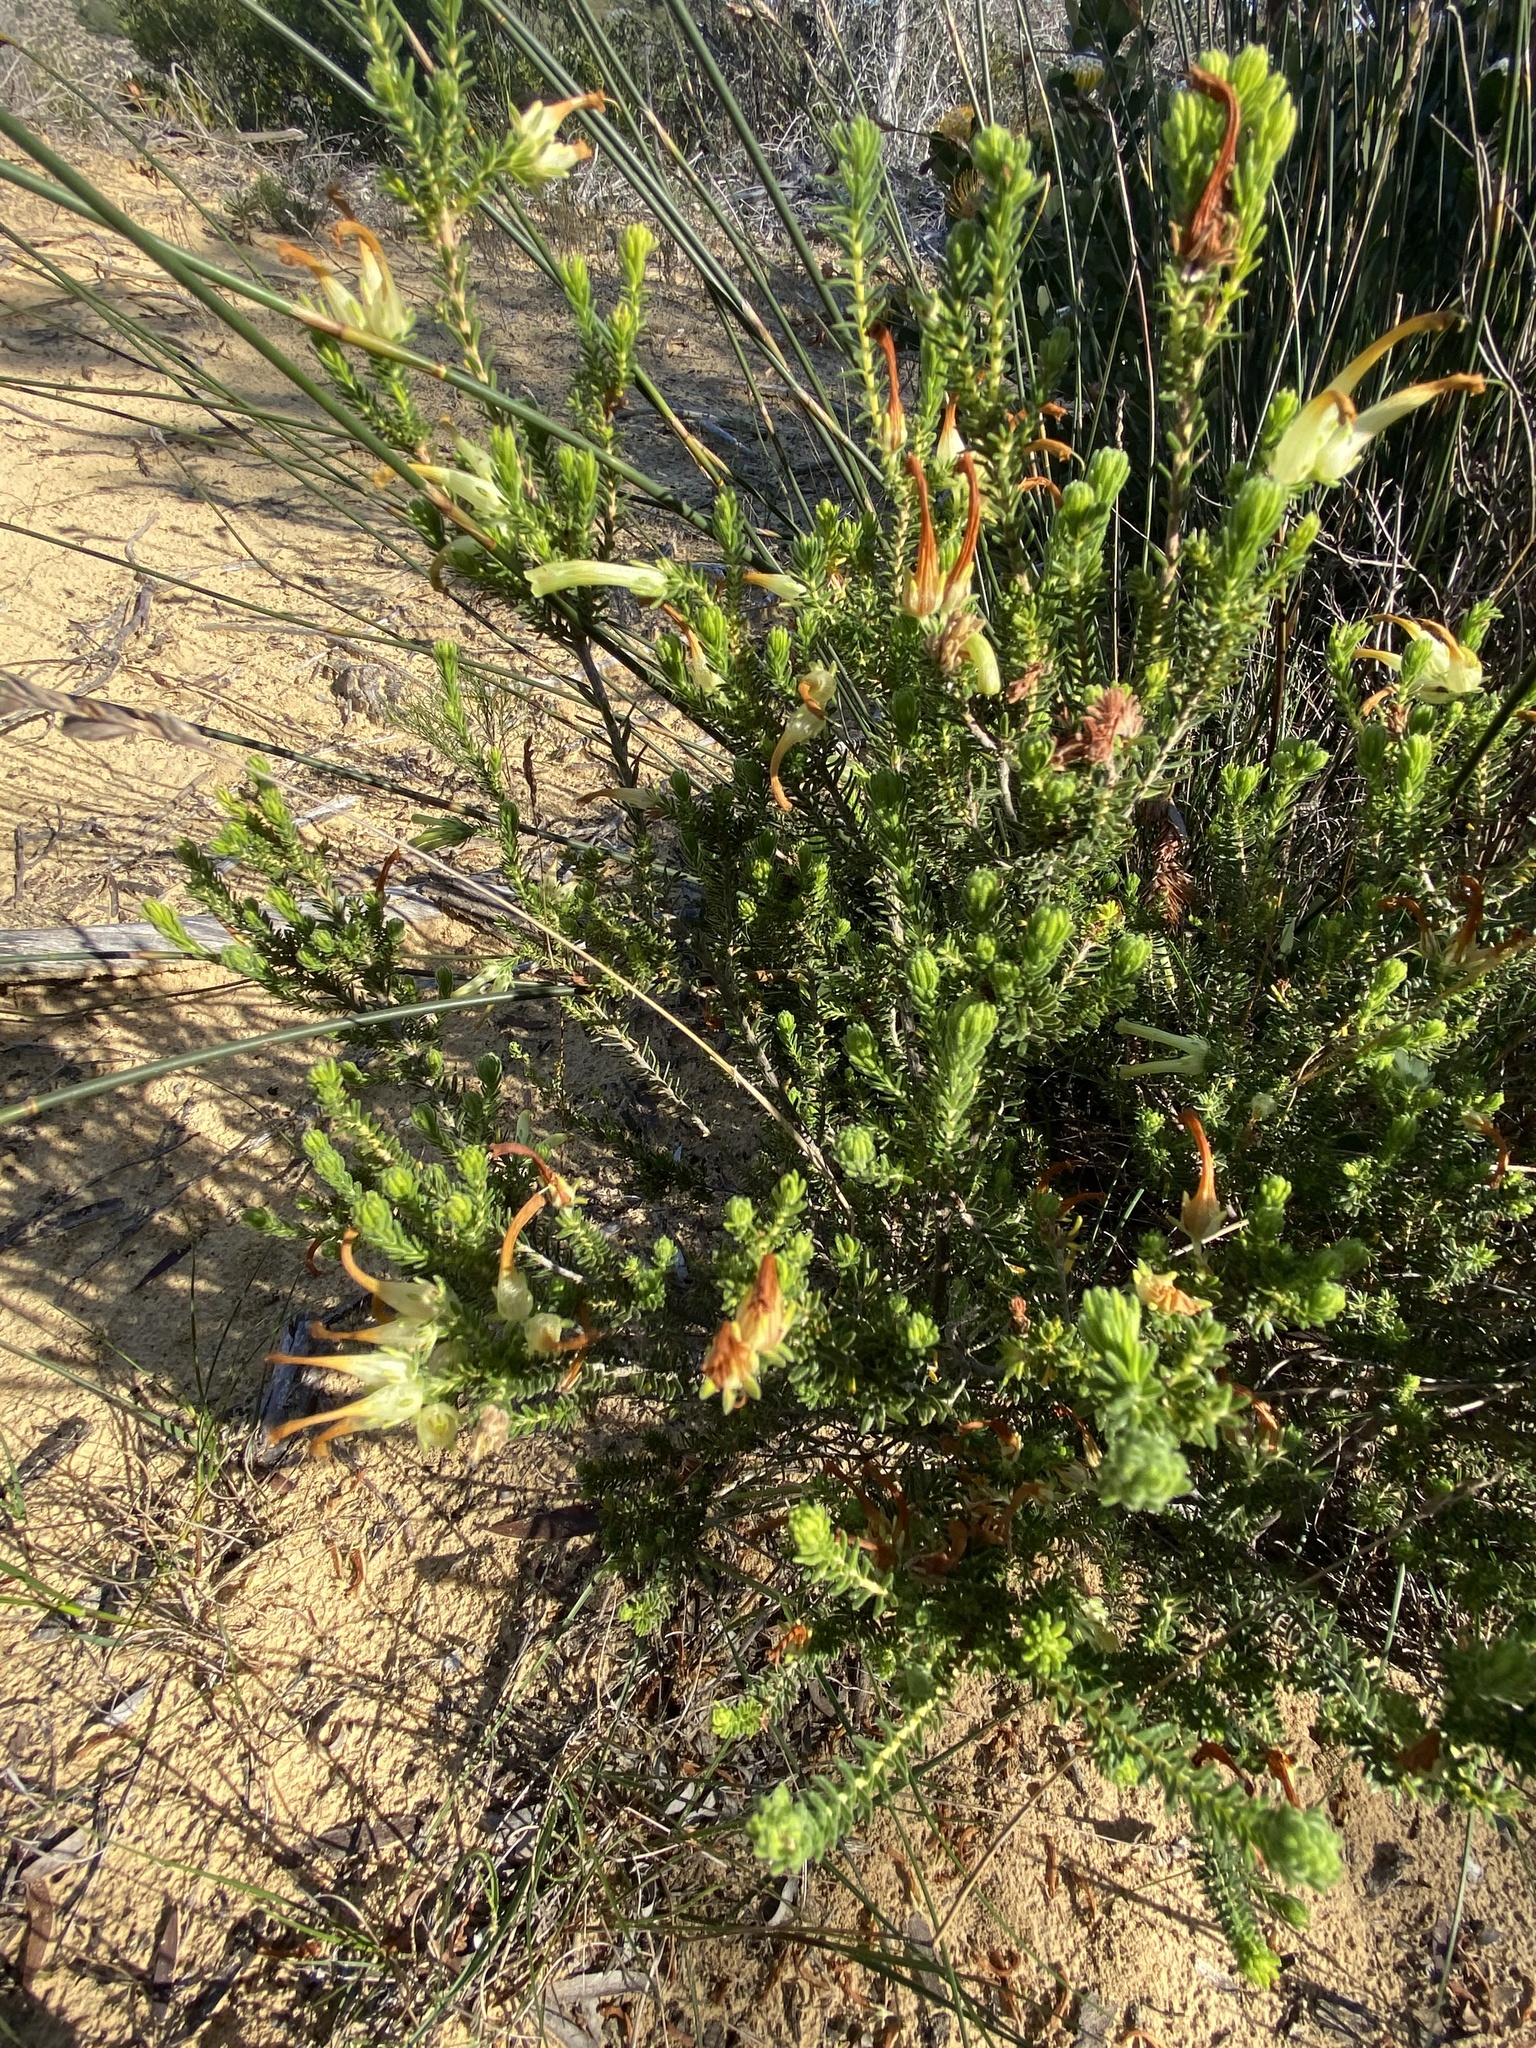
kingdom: Plantae
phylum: Tracheophyta
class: Magnoliopsida
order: Ericales
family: Ericaceae
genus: Erica
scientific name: Erica unicolor
